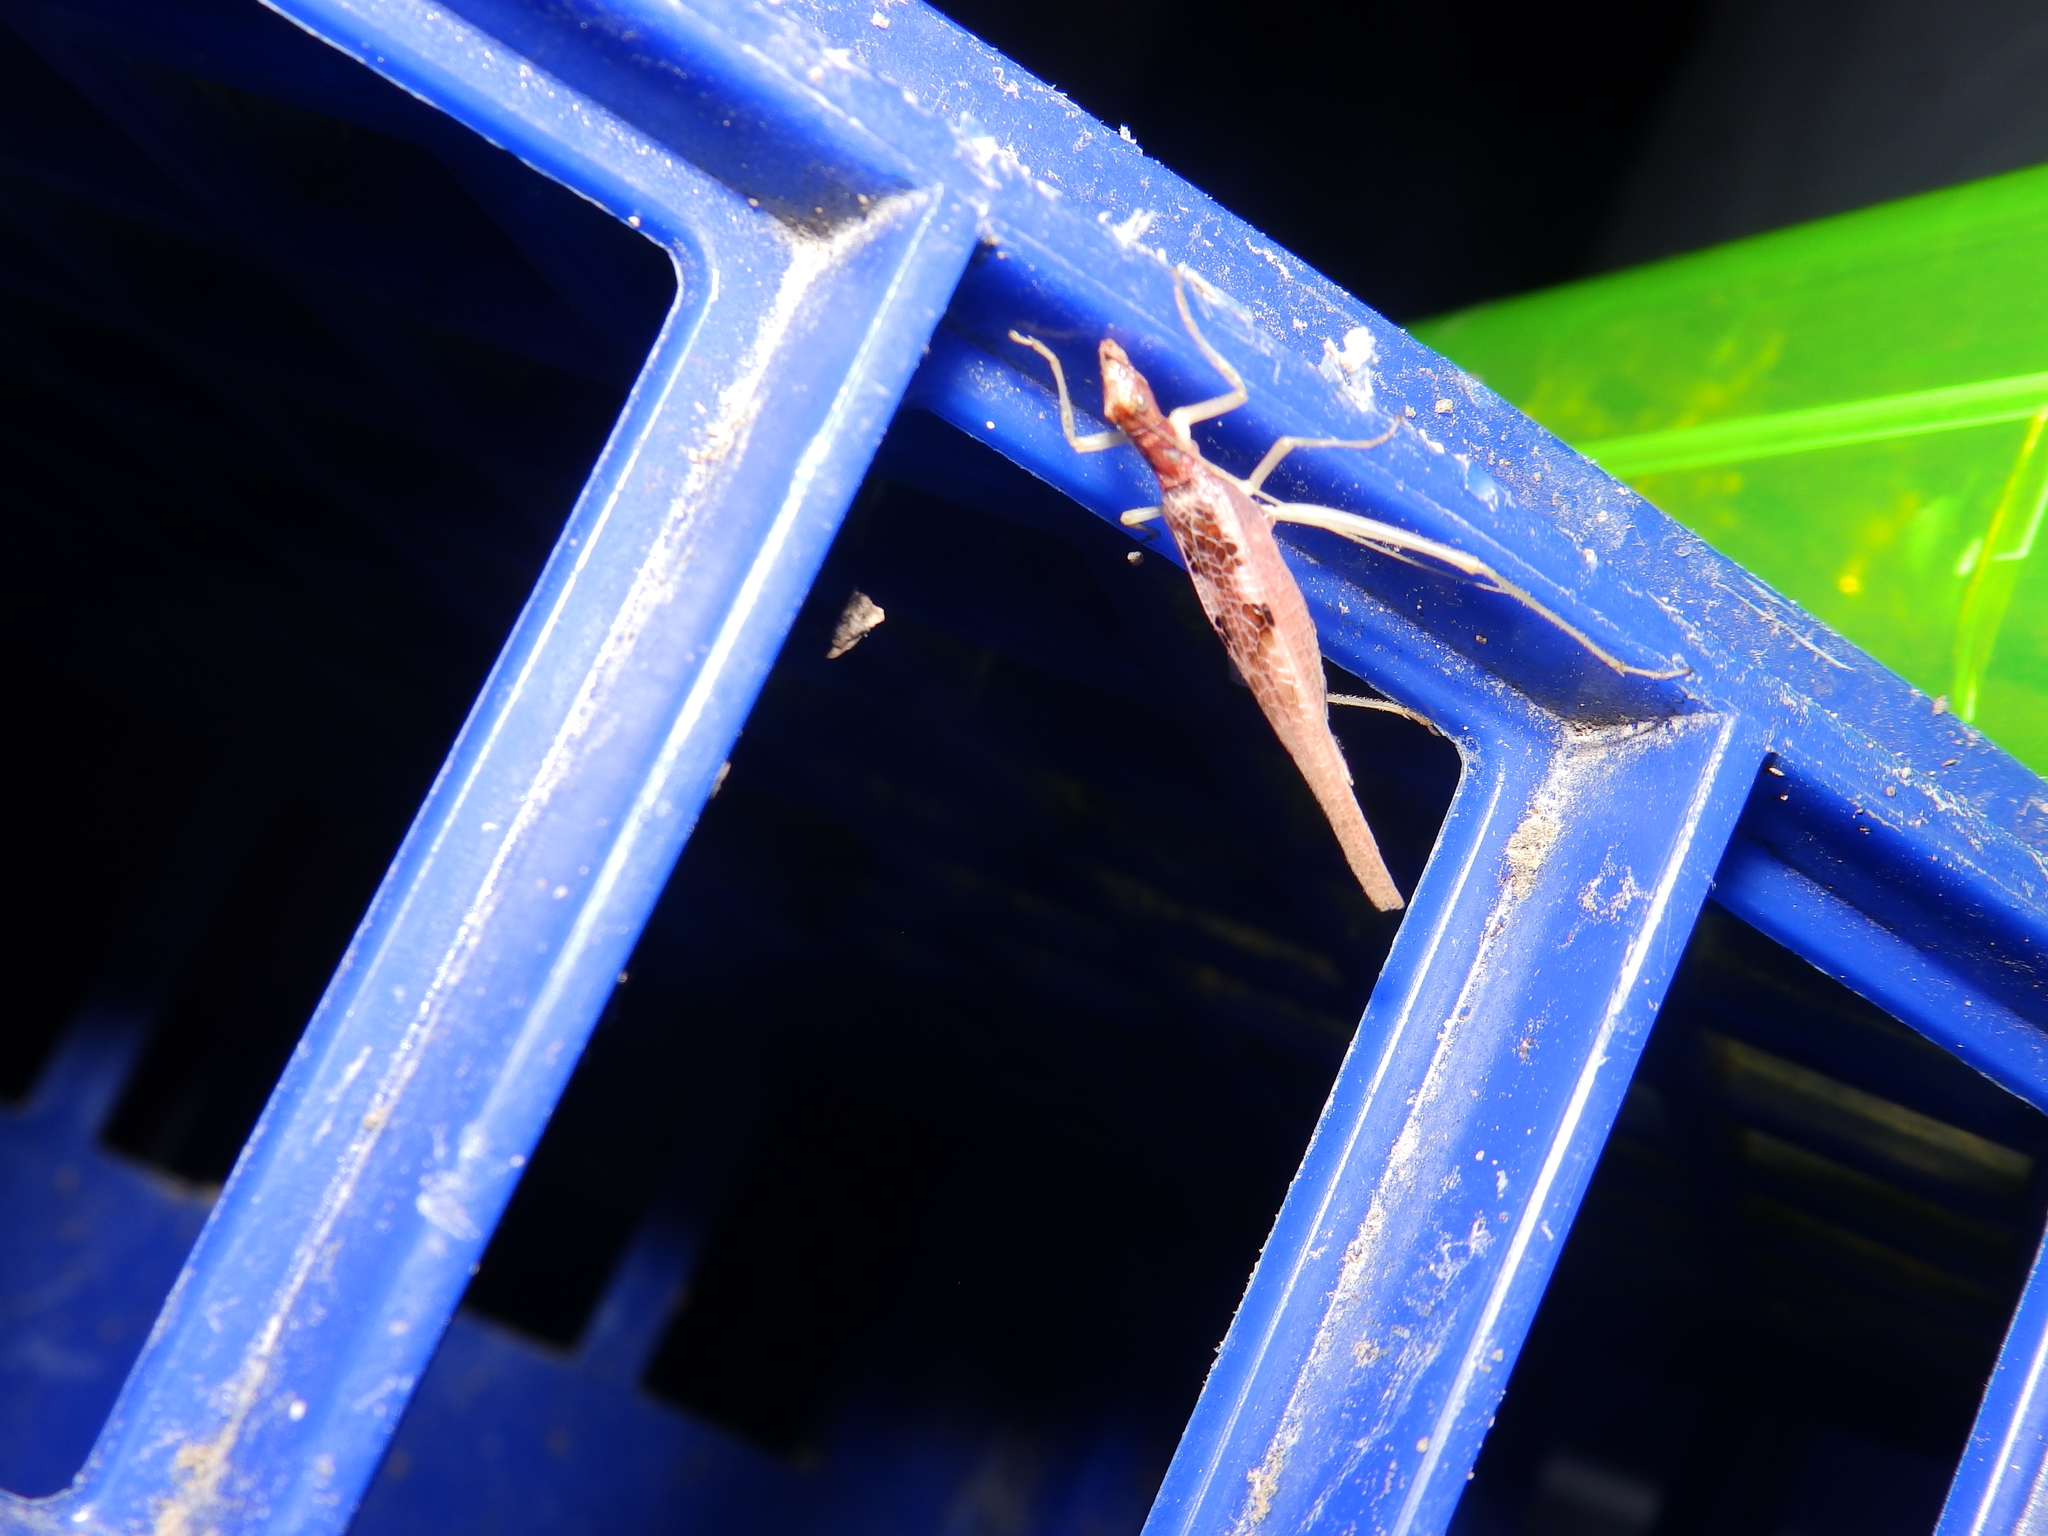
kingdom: Animalia
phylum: Arthropoda
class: Insecta
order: Orthoptera
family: Gryllidae
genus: Neoxabea
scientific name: Neoxabea bipunctata
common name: Two-spotted tree cricket
